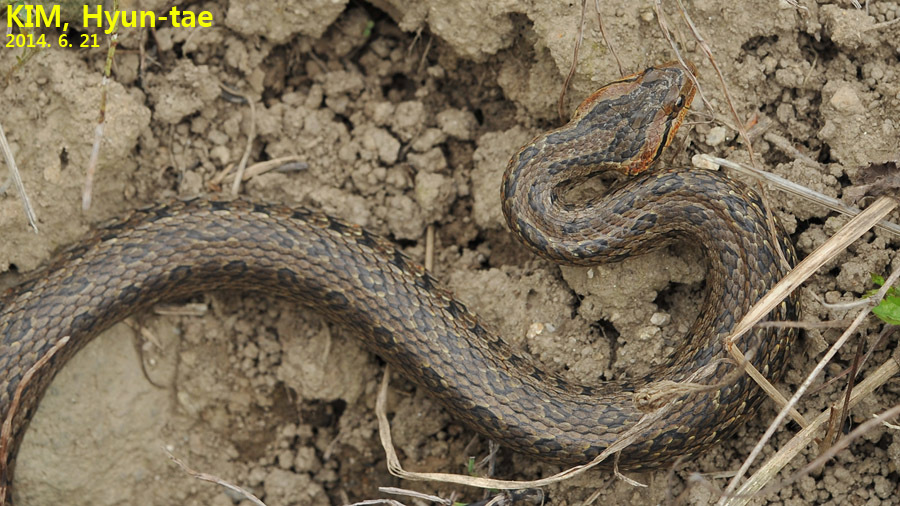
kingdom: Animalia
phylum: Chordata
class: Squamata
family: Colubridae
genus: Oocatochus
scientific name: Oocatochus rufodorsatus
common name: Frog-eating rat snake
